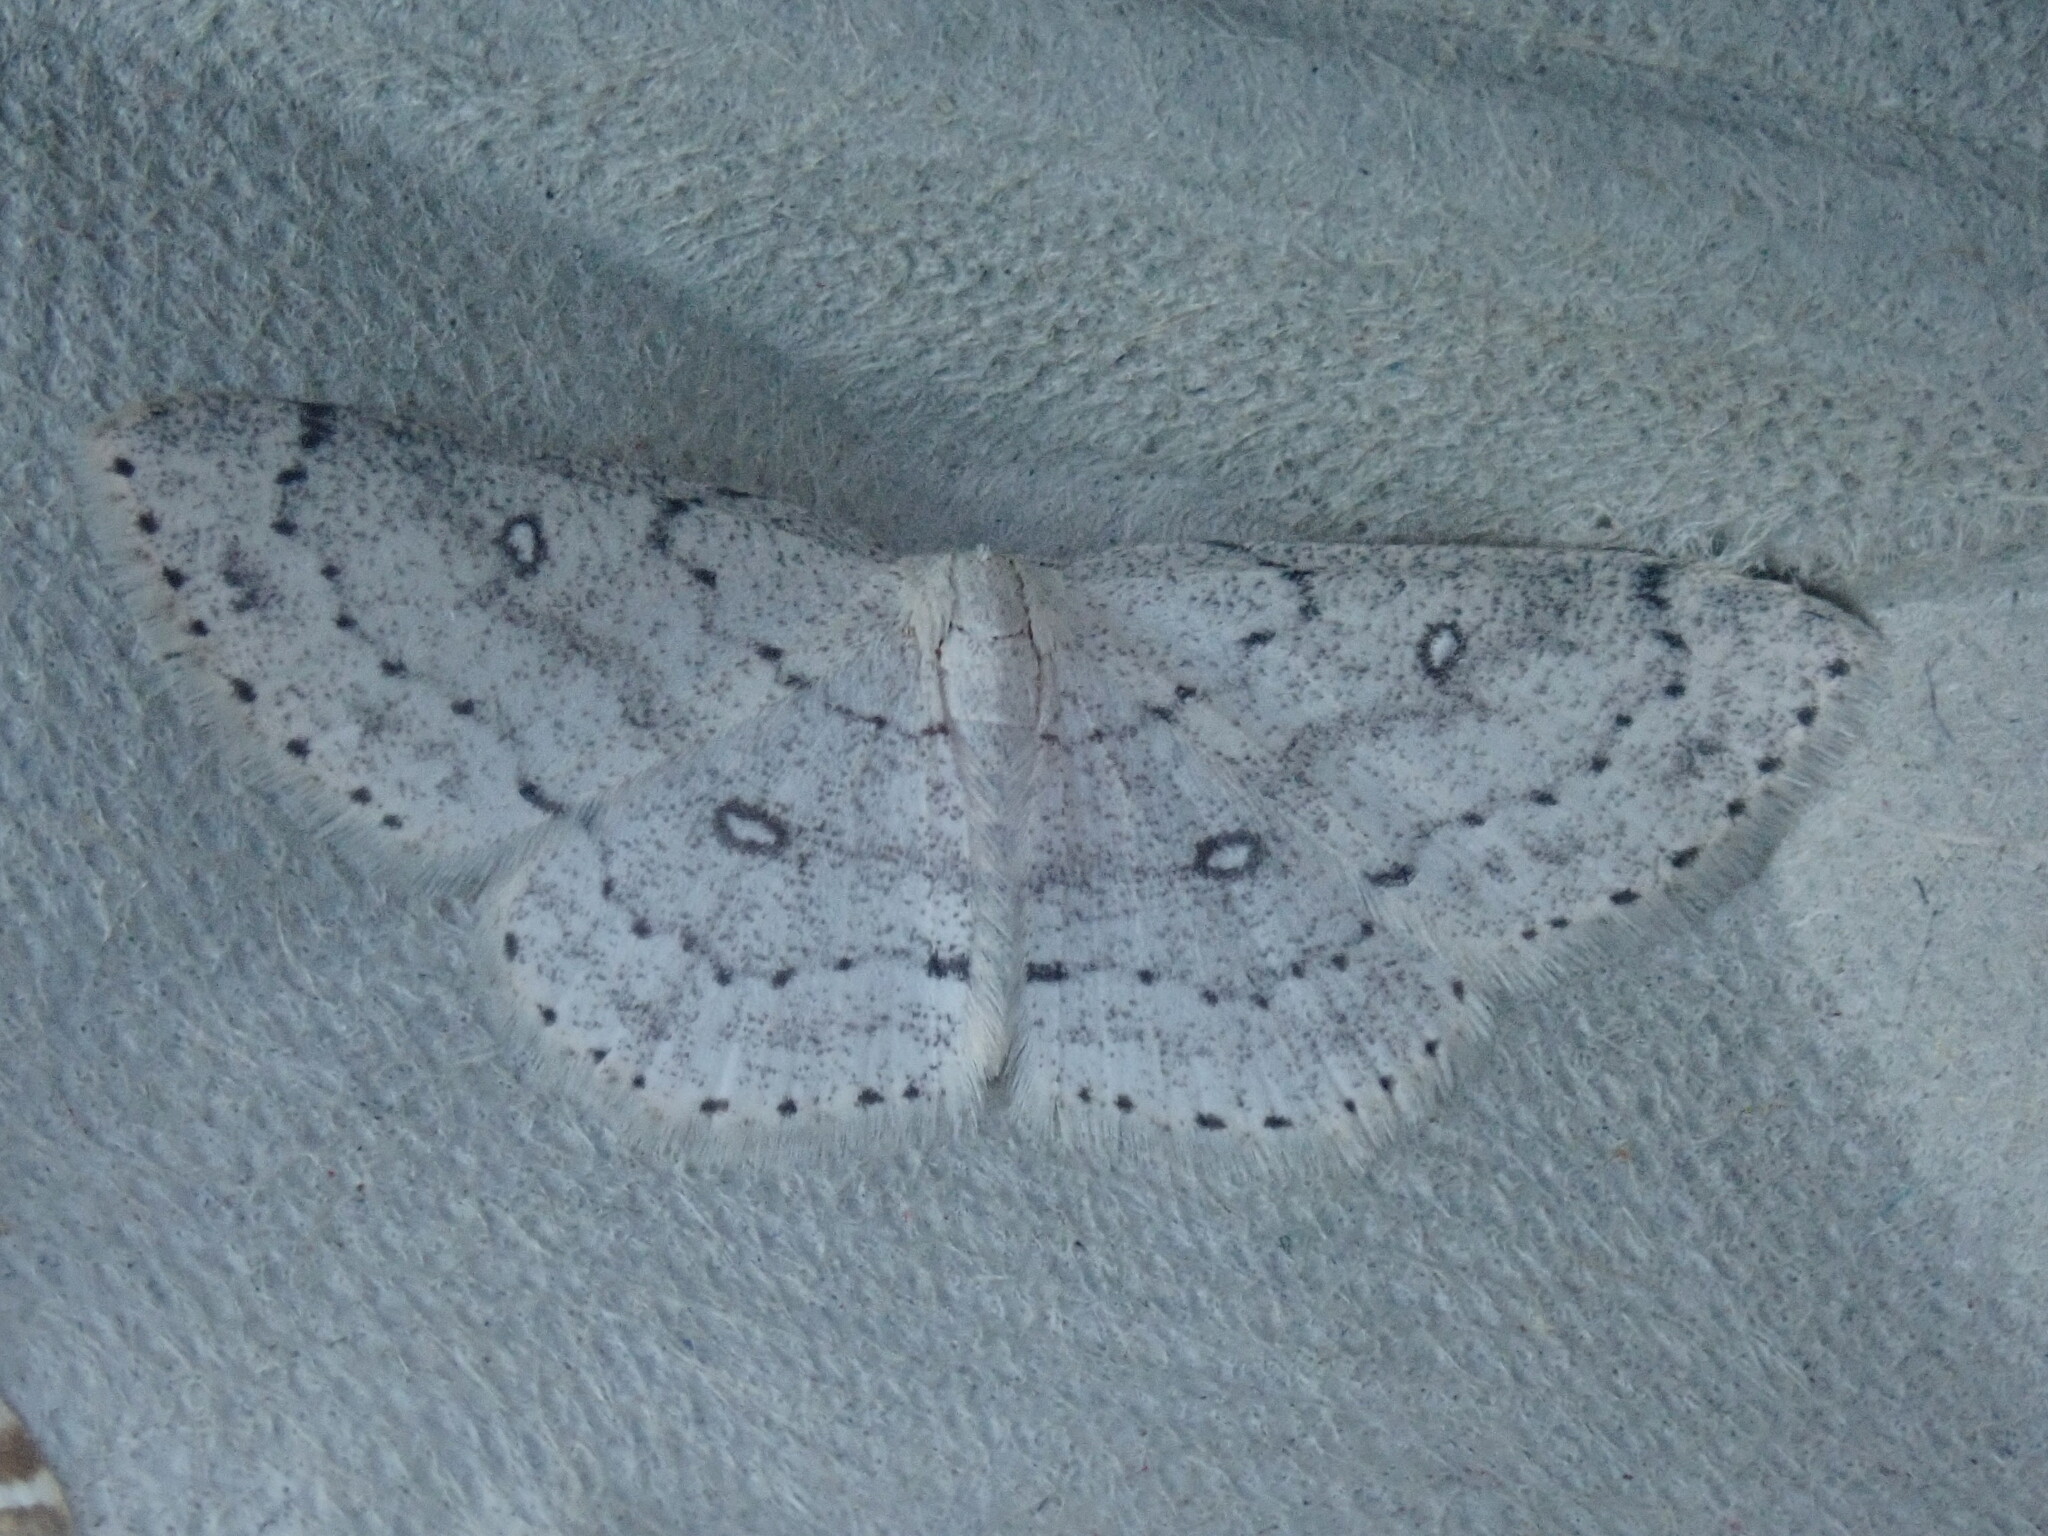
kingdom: Animalia
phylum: Arthropoda
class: Insecta
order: Lepidoptera
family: Geometridae
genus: Cyclophora
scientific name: Cyclophora pendulinaria
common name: Sweet fern geometer
